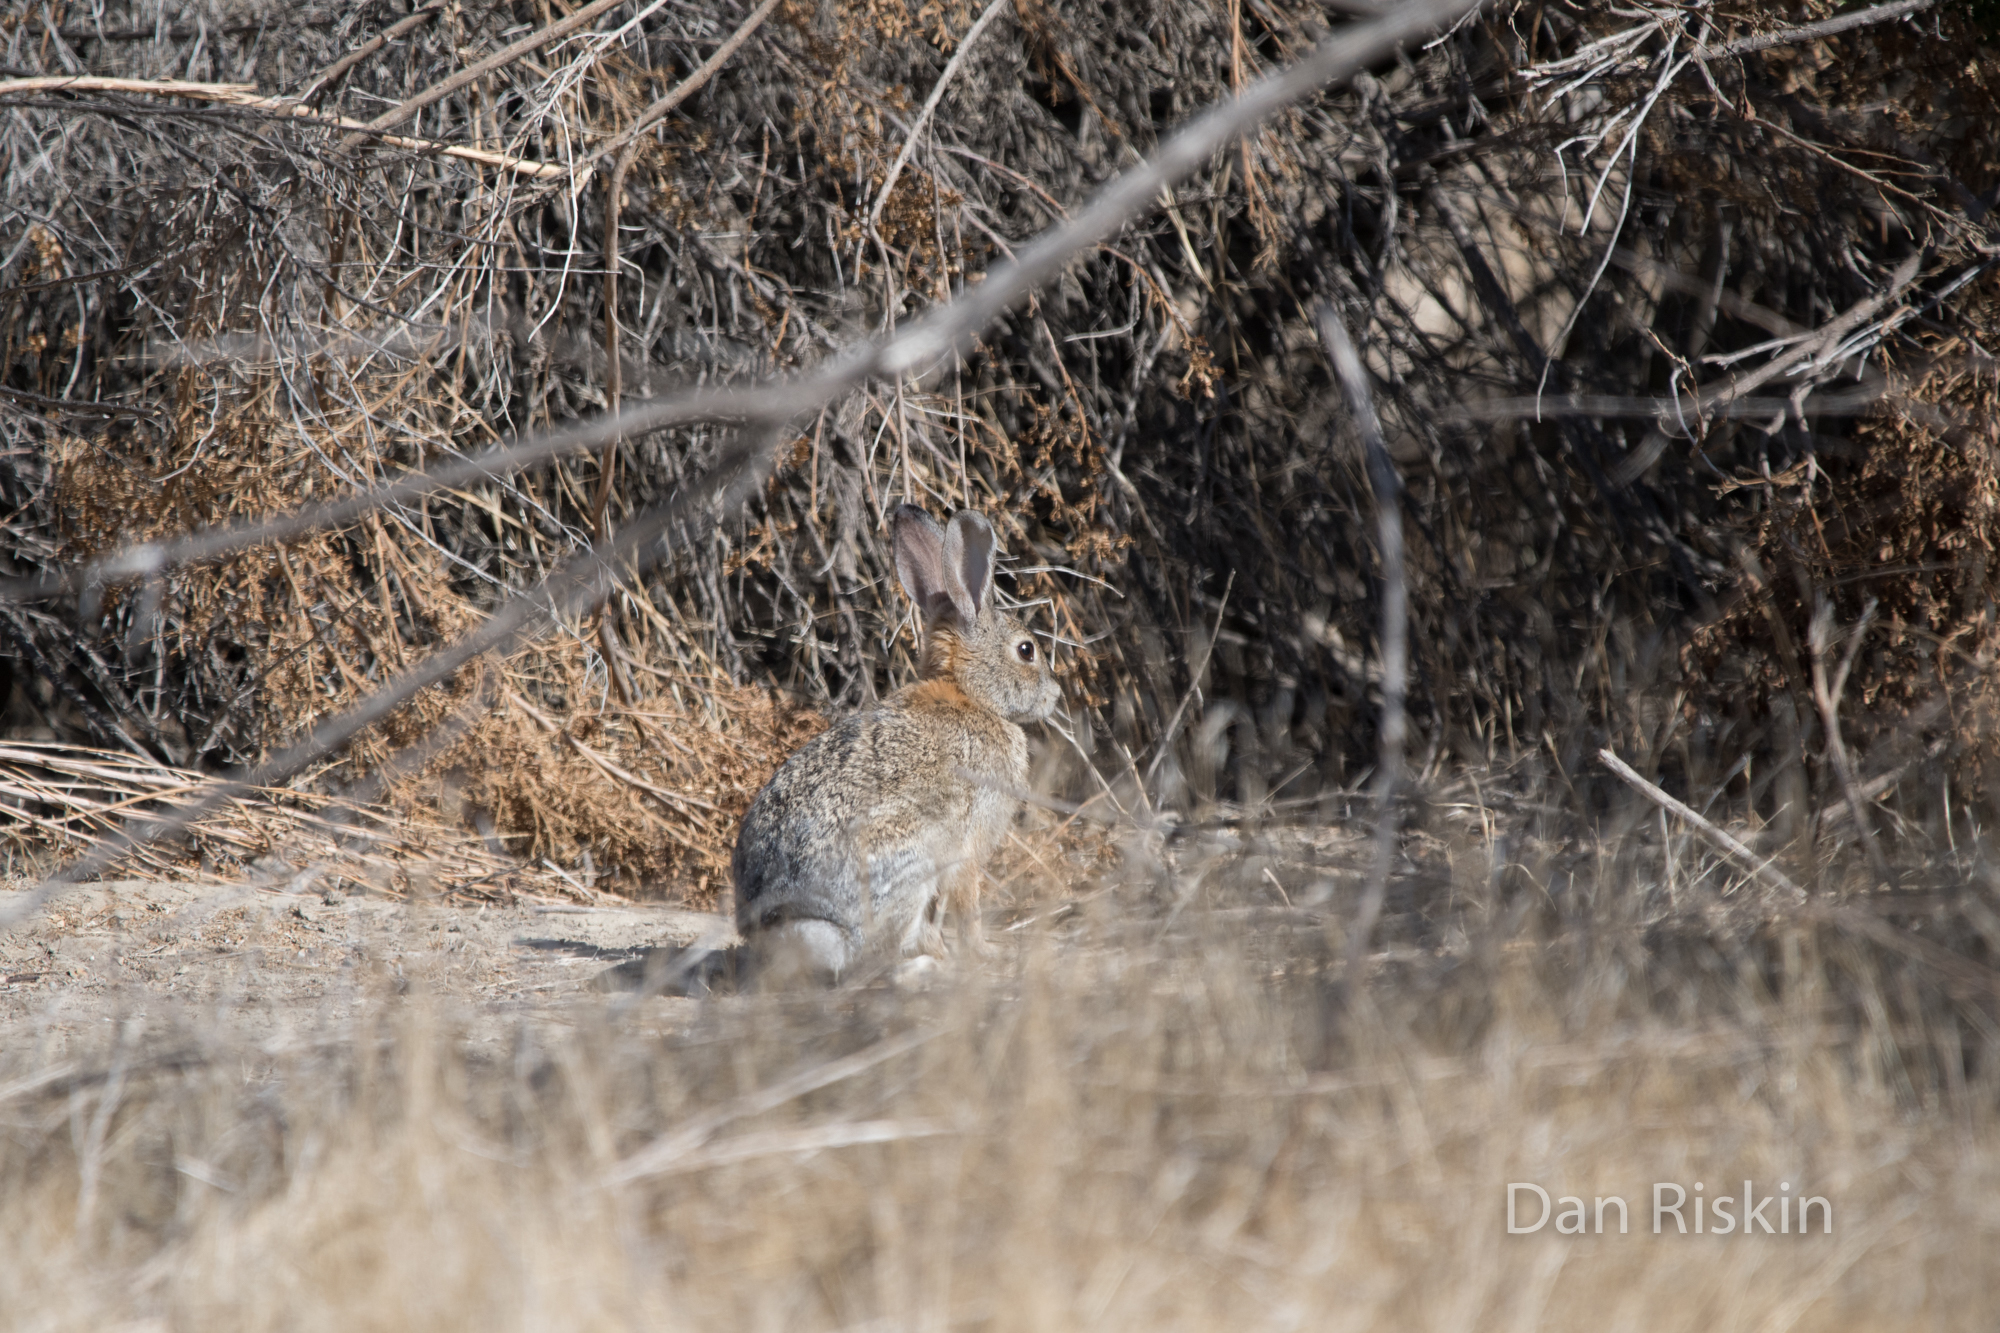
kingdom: Animalia
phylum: Chordata
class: Mammalia
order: Lagomorpha
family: Leporidae
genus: Sylvilagus
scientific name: Sylvilagus audubonii
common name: Desert cottontail
